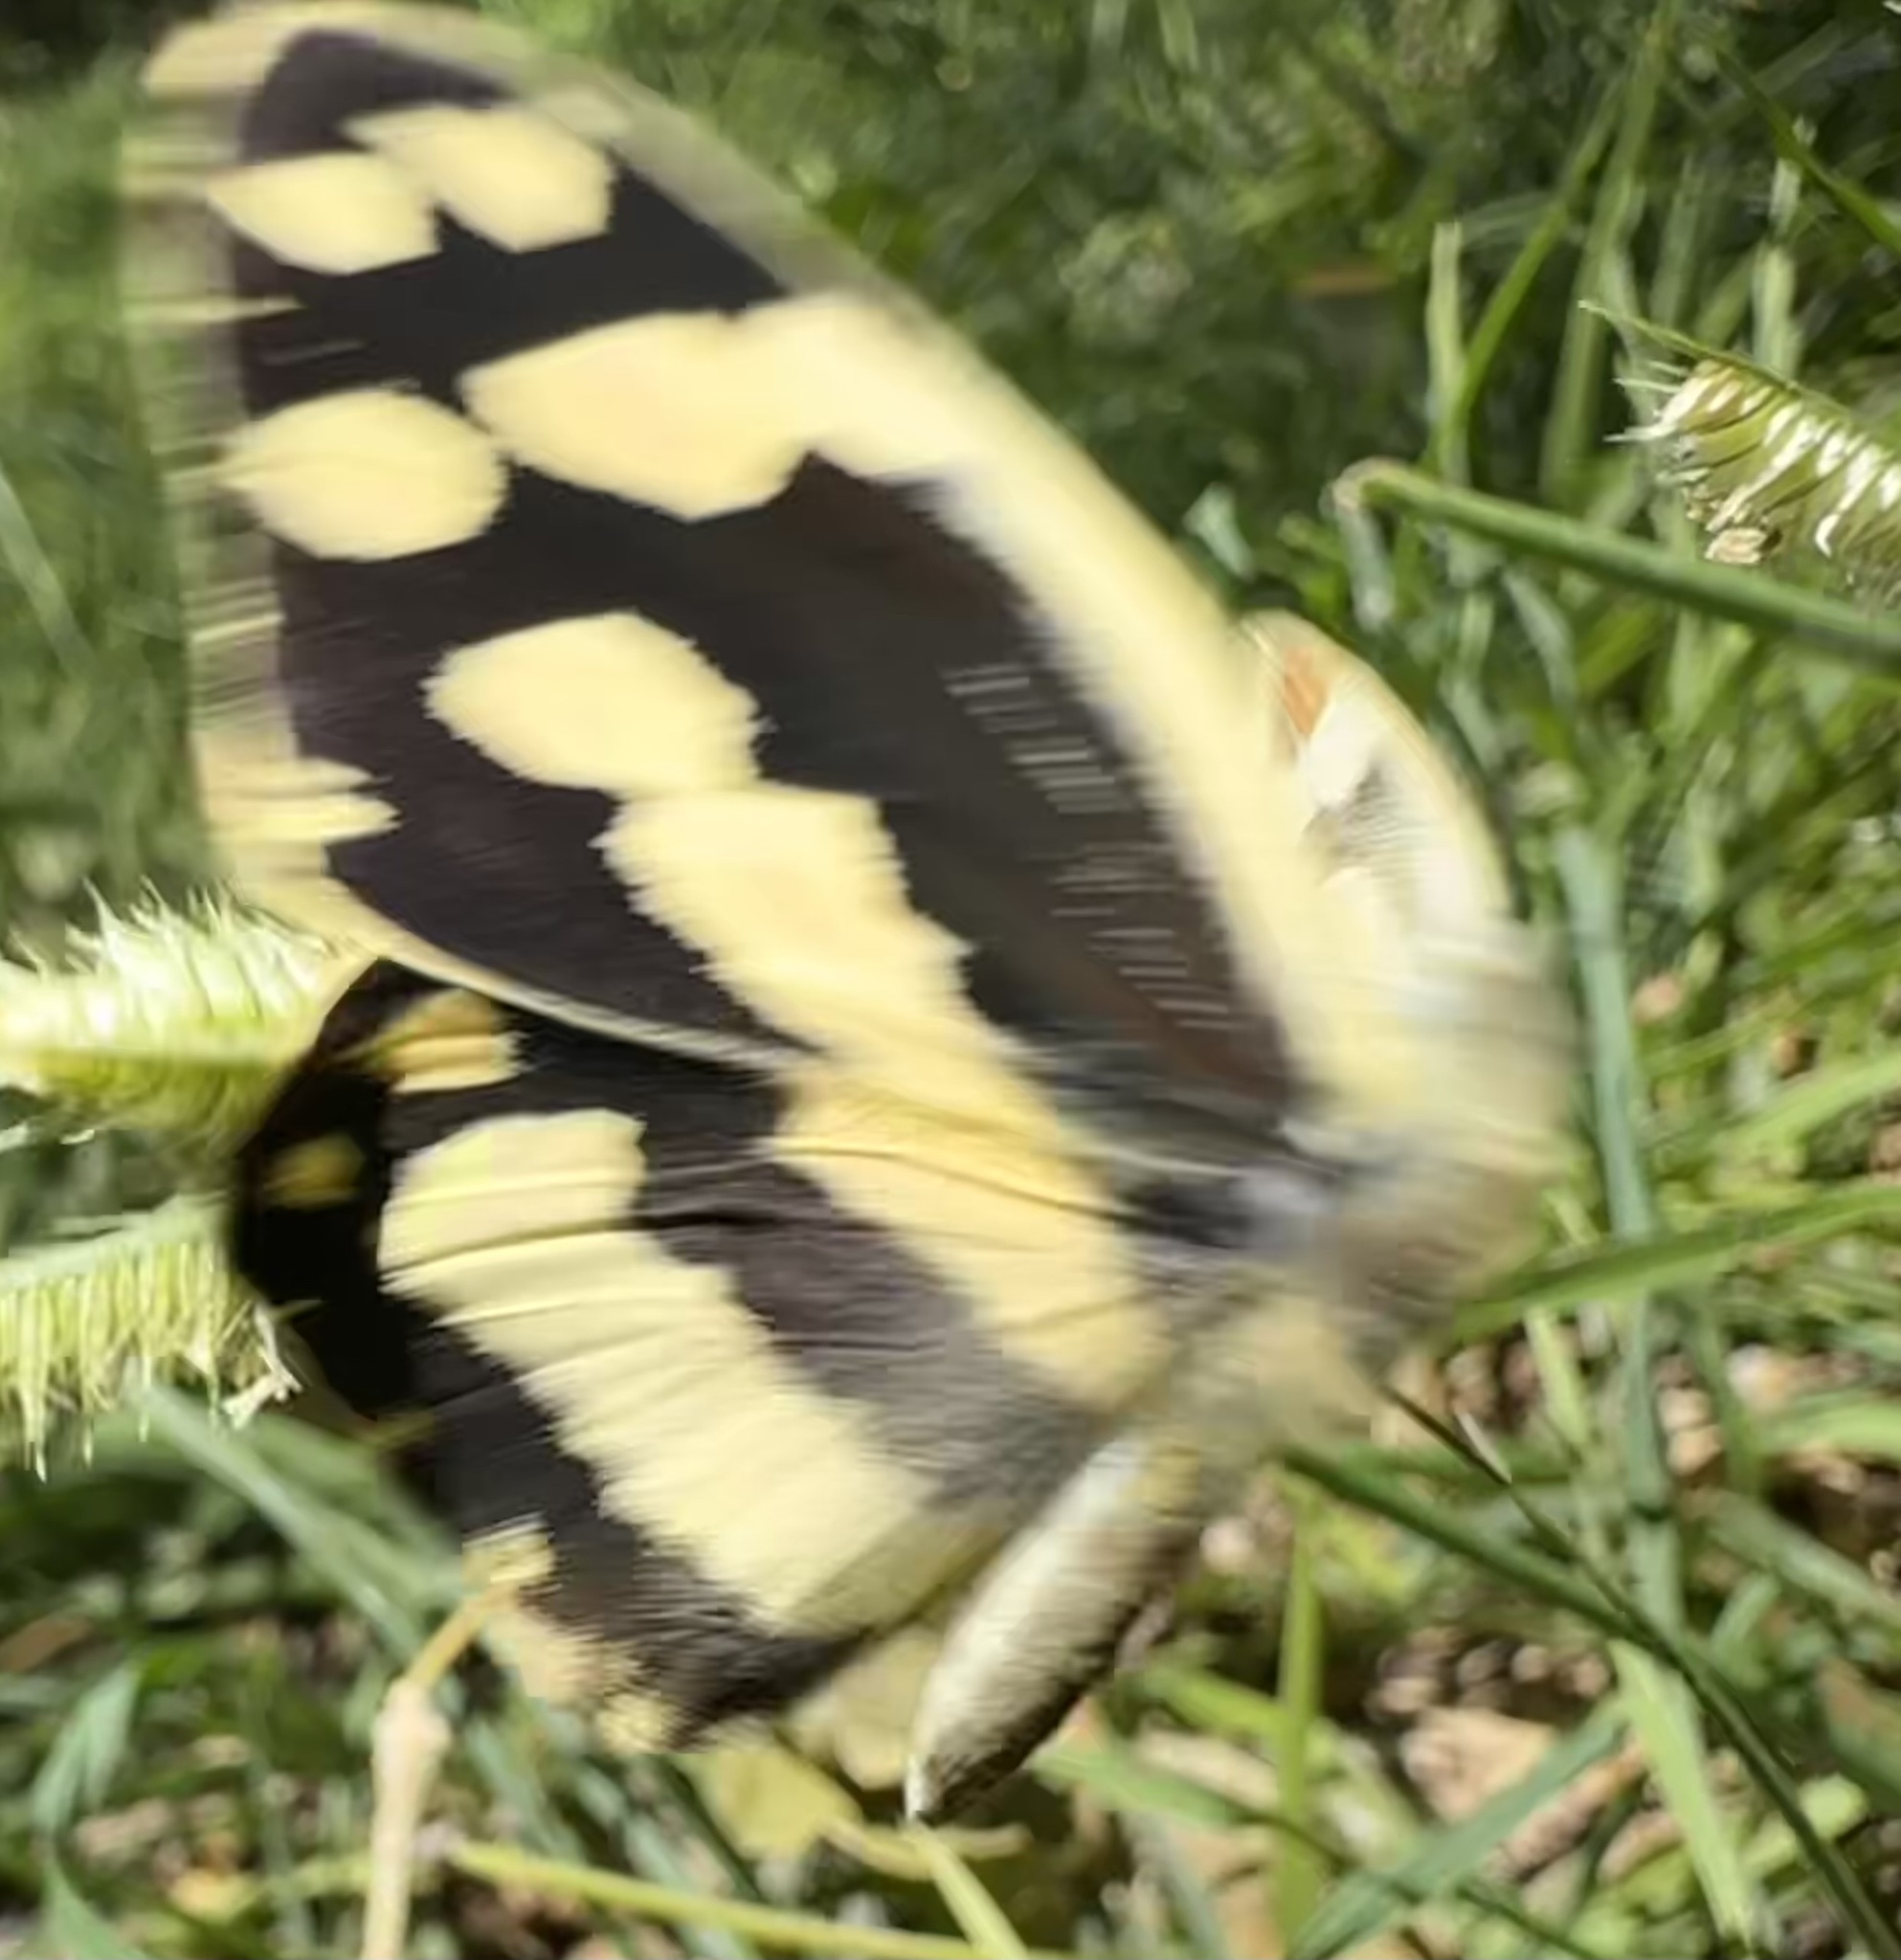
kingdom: Animalia
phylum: Arthropoda
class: Insecta
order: Lepidoptera
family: Pieridae
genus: Pinacopteryx
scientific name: Pinacopteryx eriphia
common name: Zebra white
